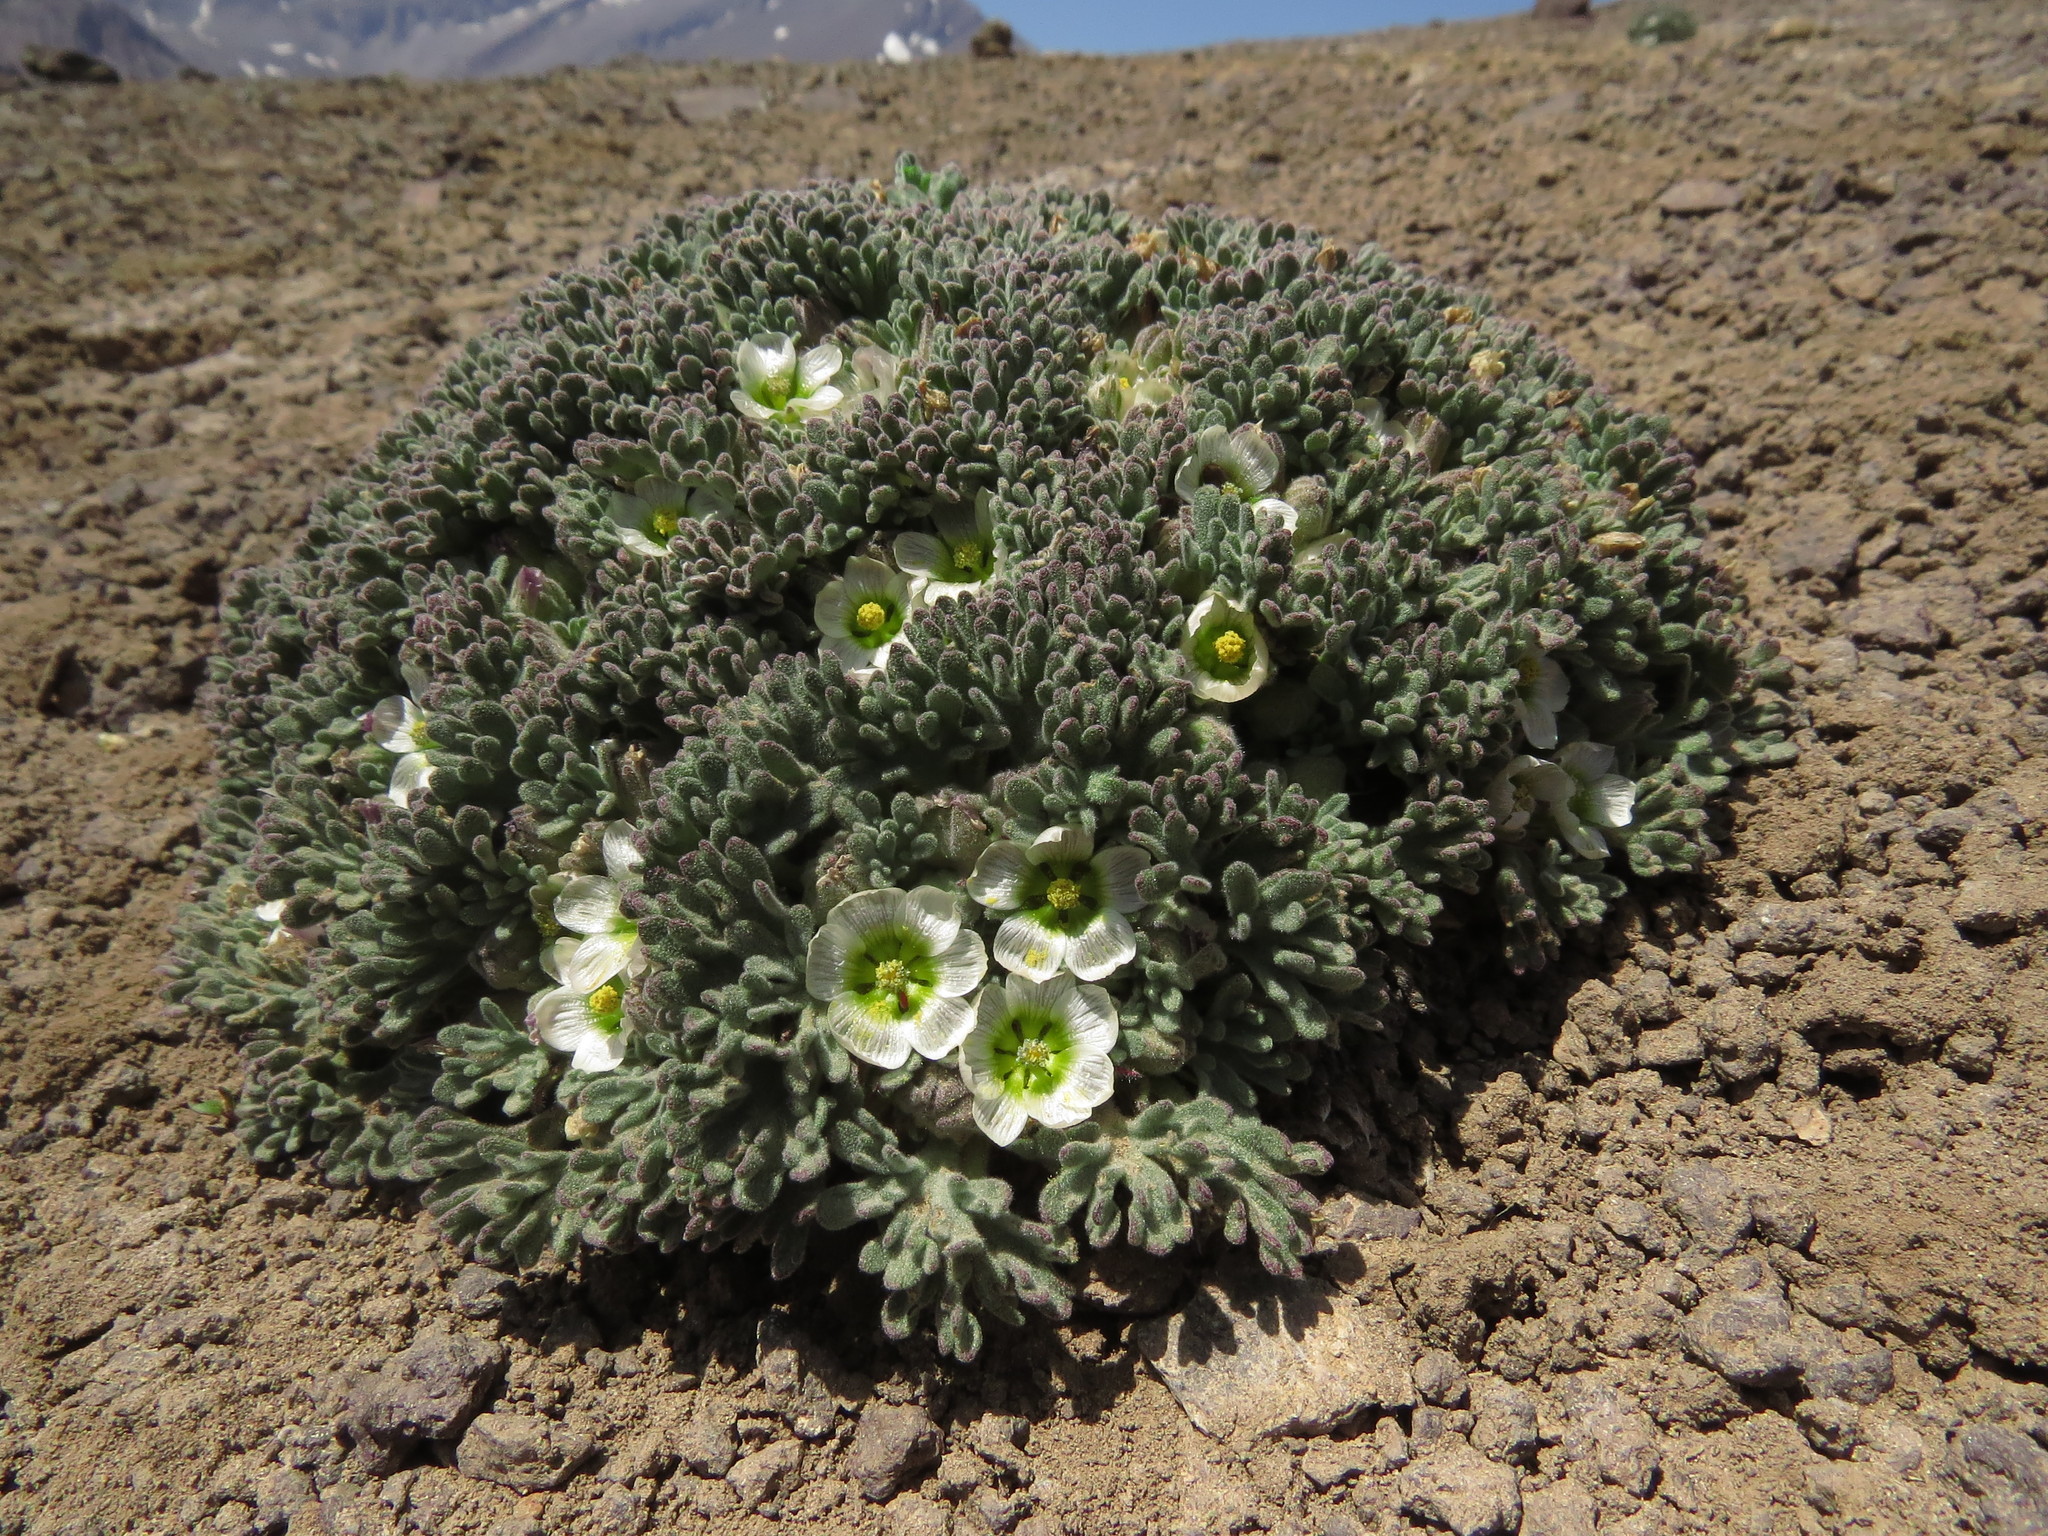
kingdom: Plantae
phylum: Tracheophyta
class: Magnoliopsida
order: Malvales
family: Malvaceae
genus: Nototriche
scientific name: Nototriche compacta
